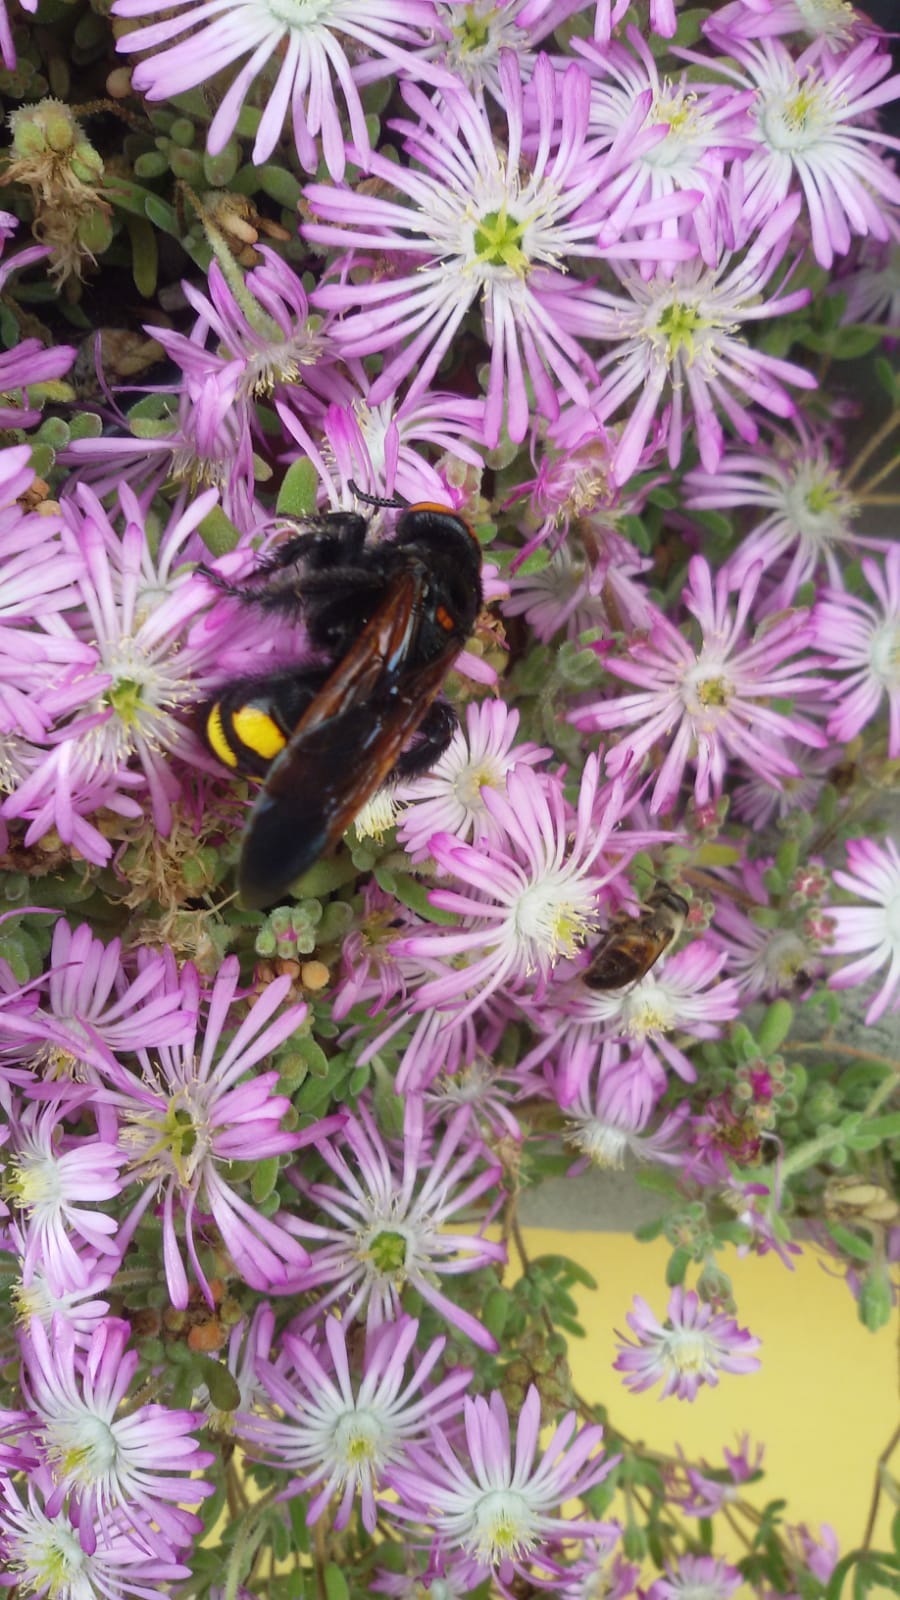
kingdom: Animalia
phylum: Arthropoda
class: Insecta
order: Hymenoptera
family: Scoliidae
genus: Megascolia
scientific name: Megascolia maculata
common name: Mammoth wasp
